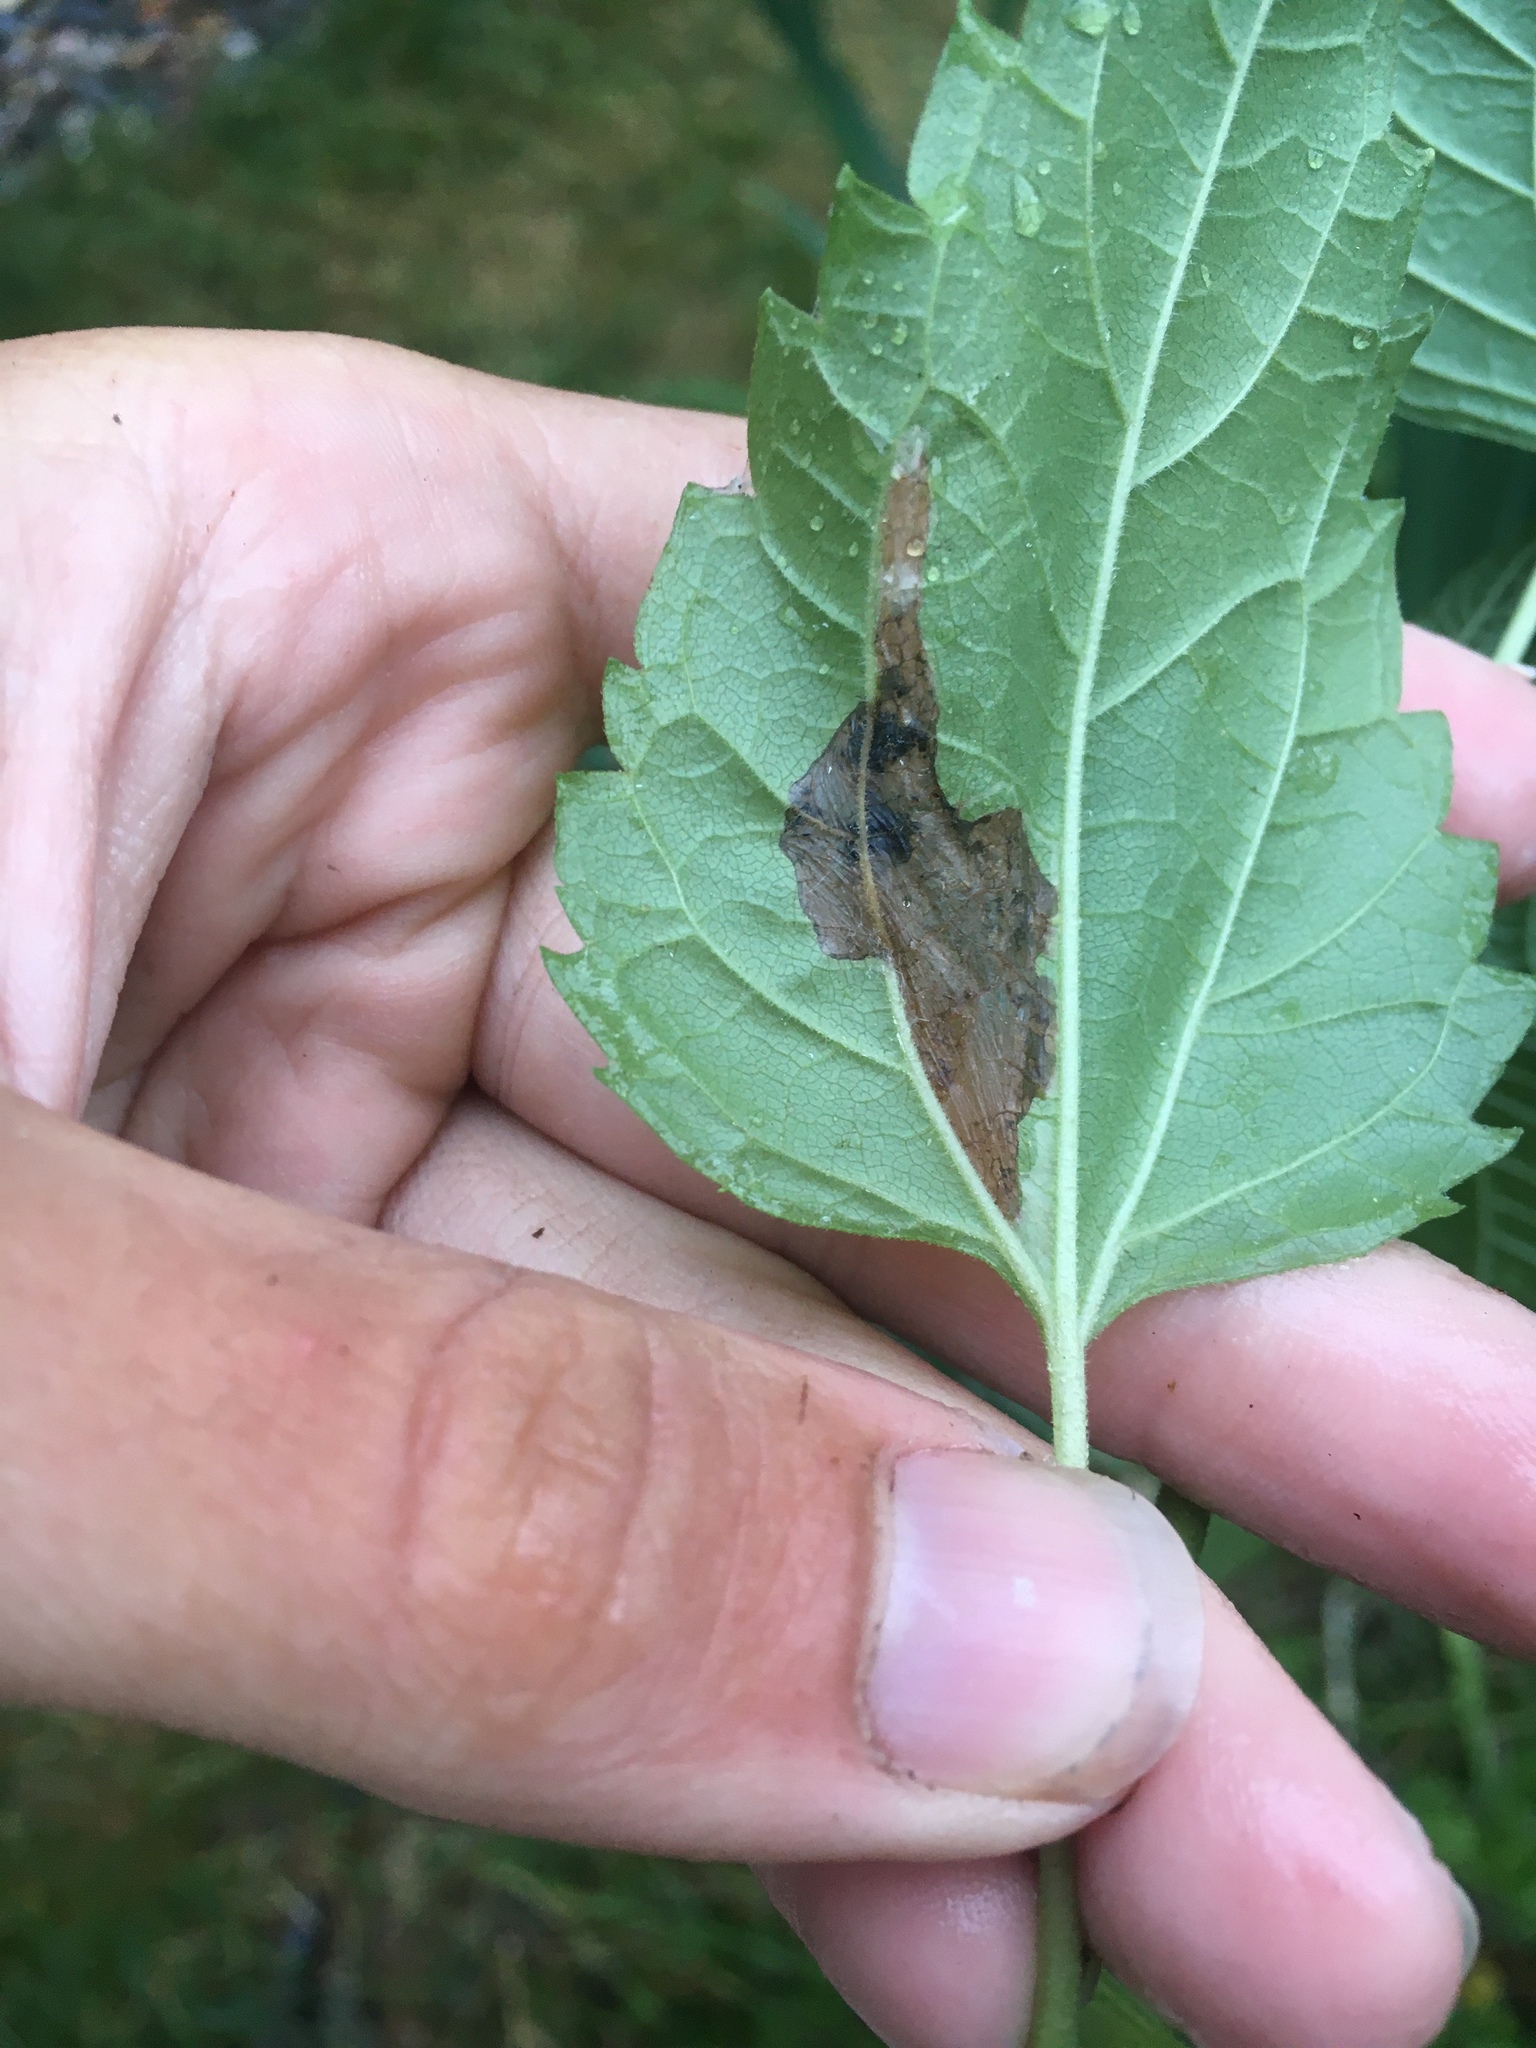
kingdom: Animalia
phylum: Arthropoda
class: Insecta
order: Lepidoptera
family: Gracillariidae
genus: Leucospilapteryx
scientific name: Leucospilapteryx venustella
